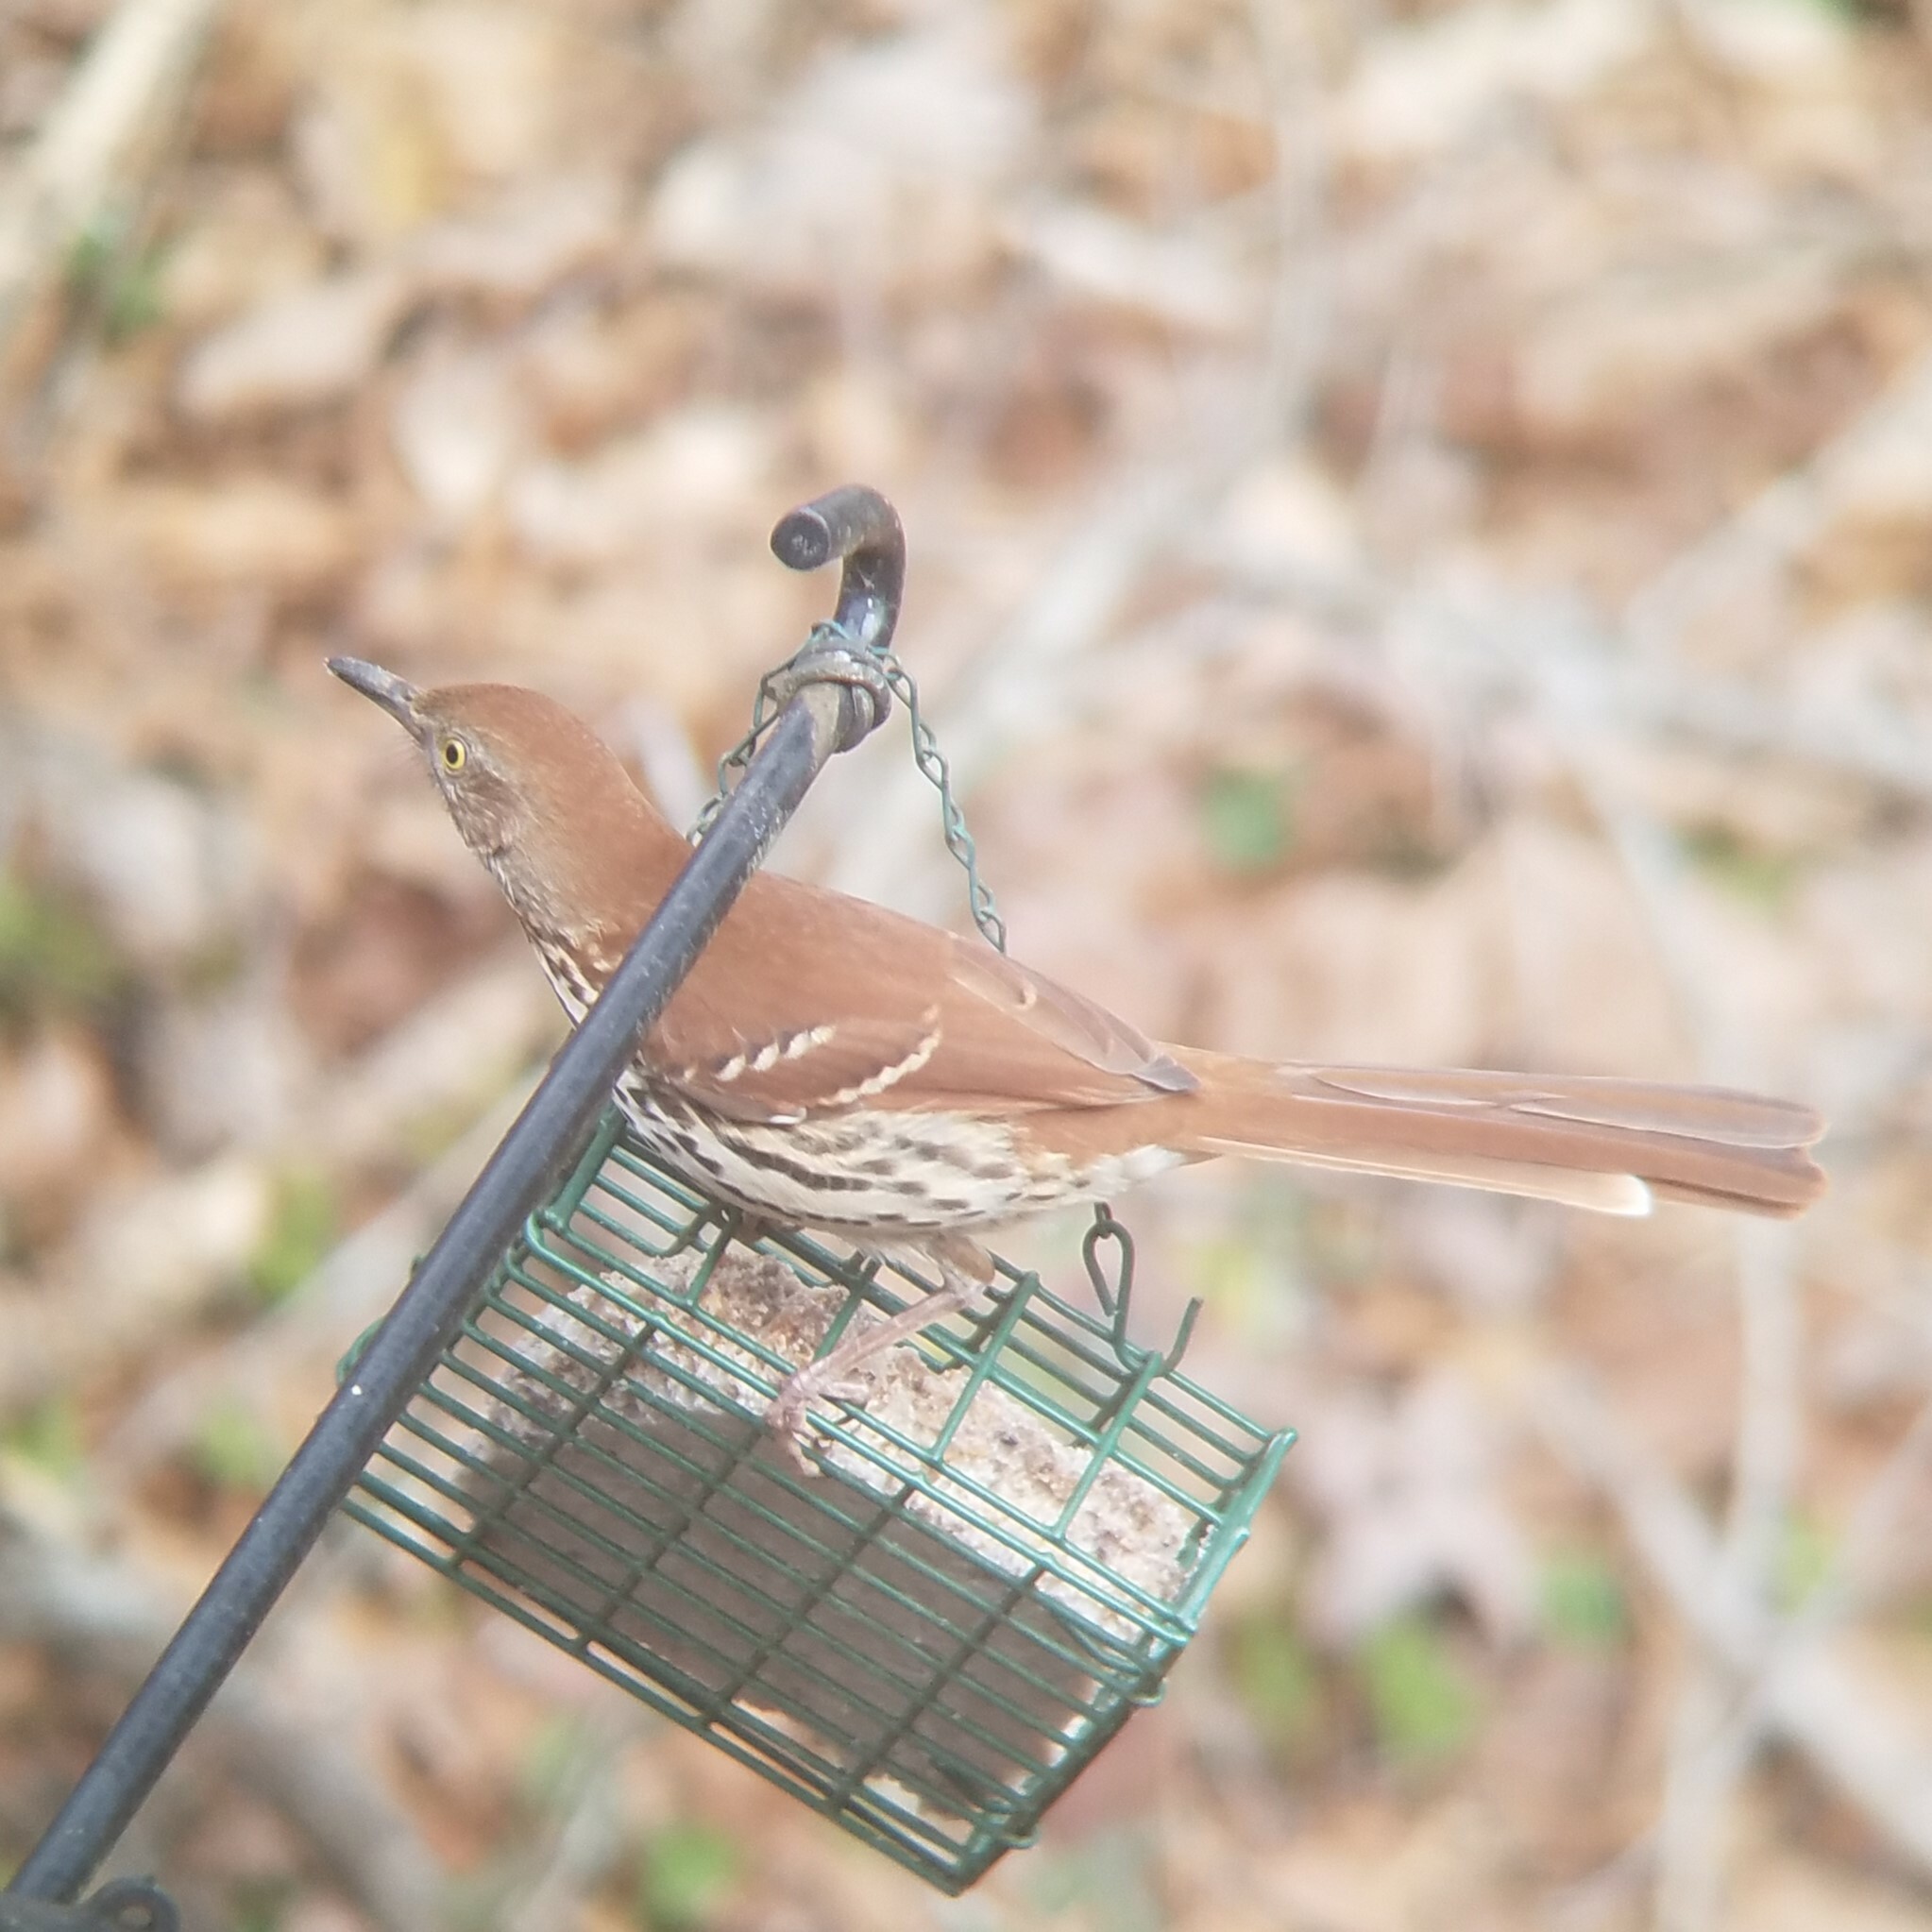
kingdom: Animalia
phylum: Chordata
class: Aves
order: Passeriformes
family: Mimidae
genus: Toxostoma
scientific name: Toxostoma rufum
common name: Brown thrasher
